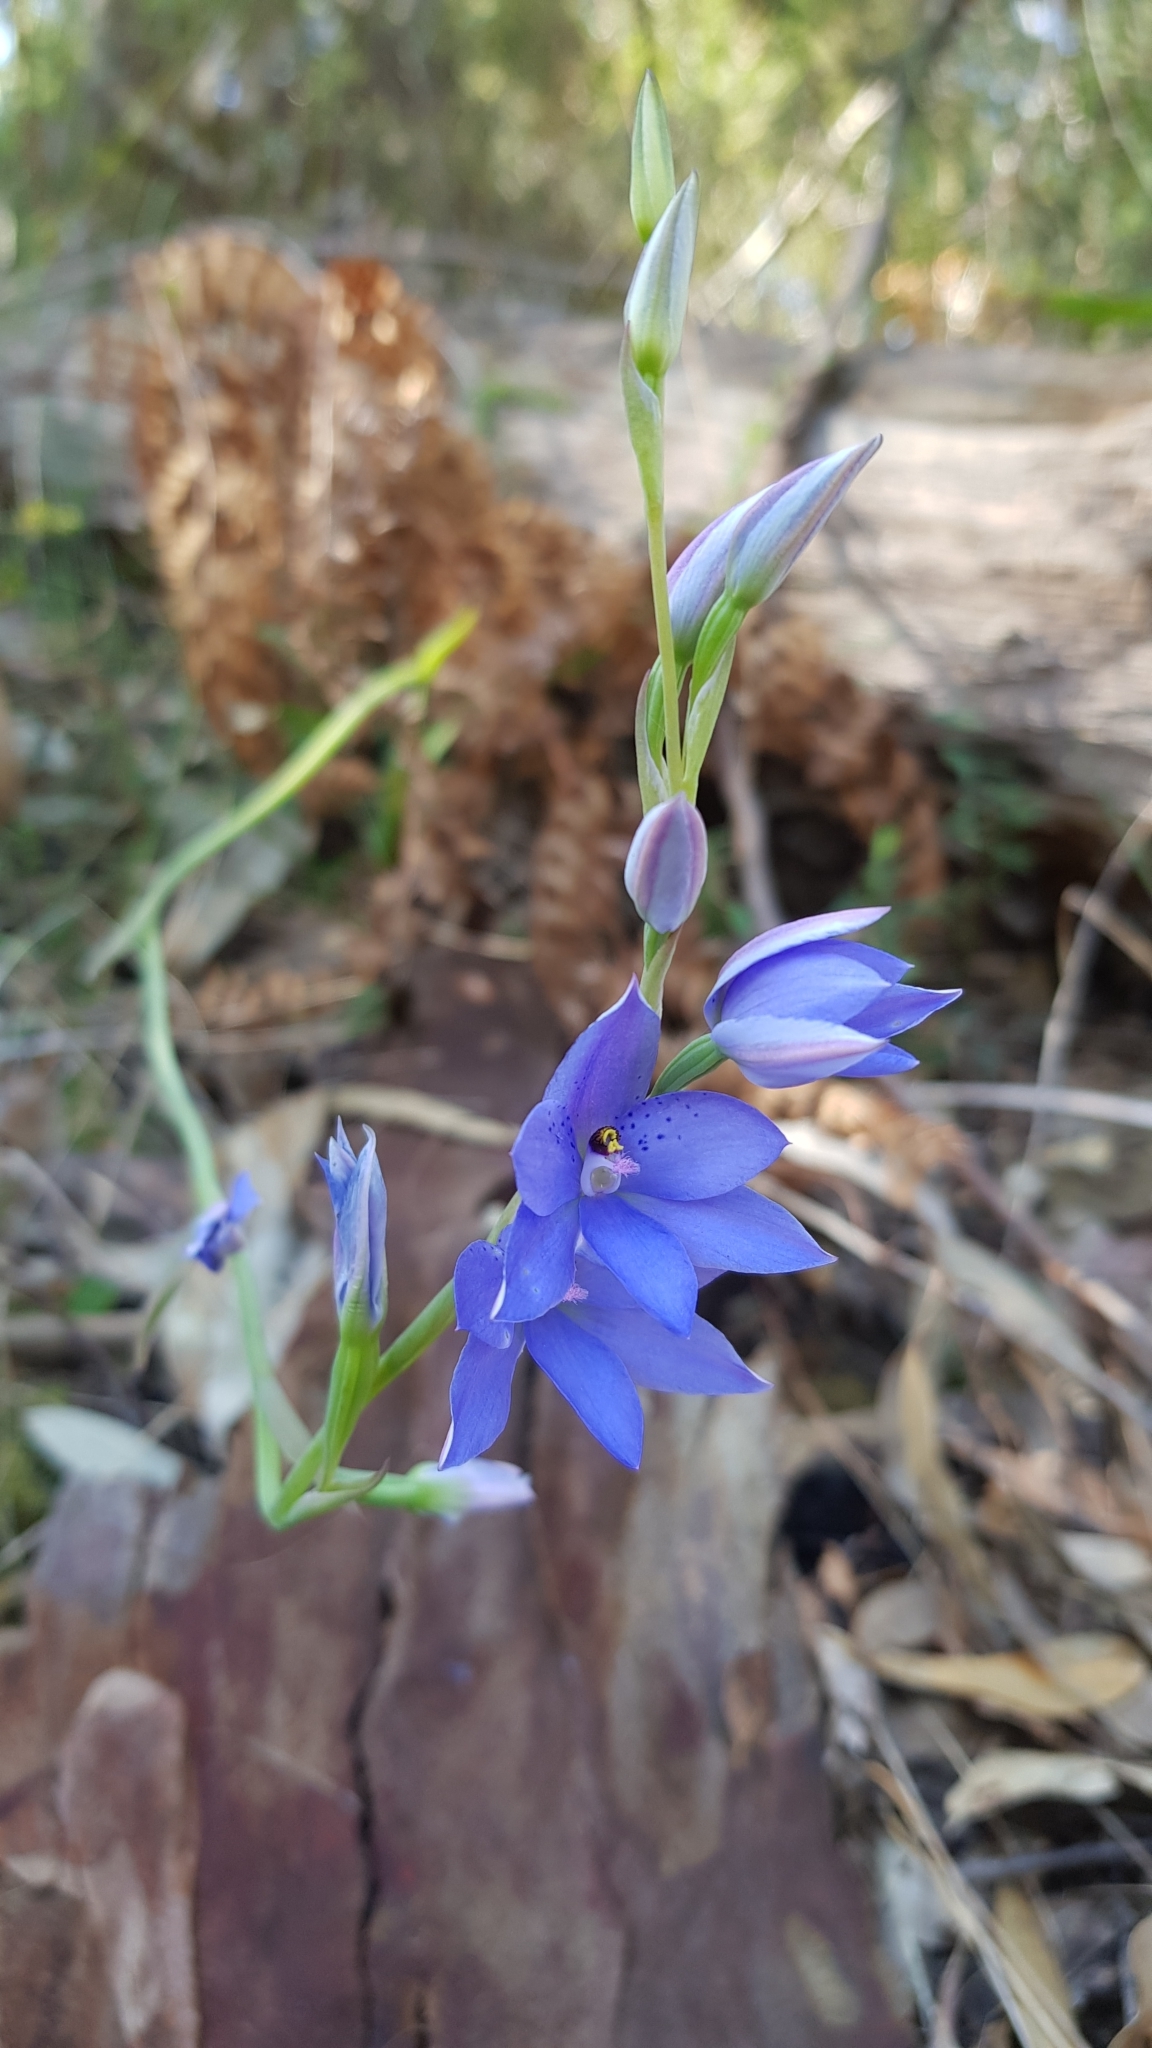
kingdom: Plantae
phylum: Tracheophyta
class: Liliopsida
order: Asparagales
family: Orchidaceae
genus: Thelymitra
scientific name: Thelymitra ixioides
